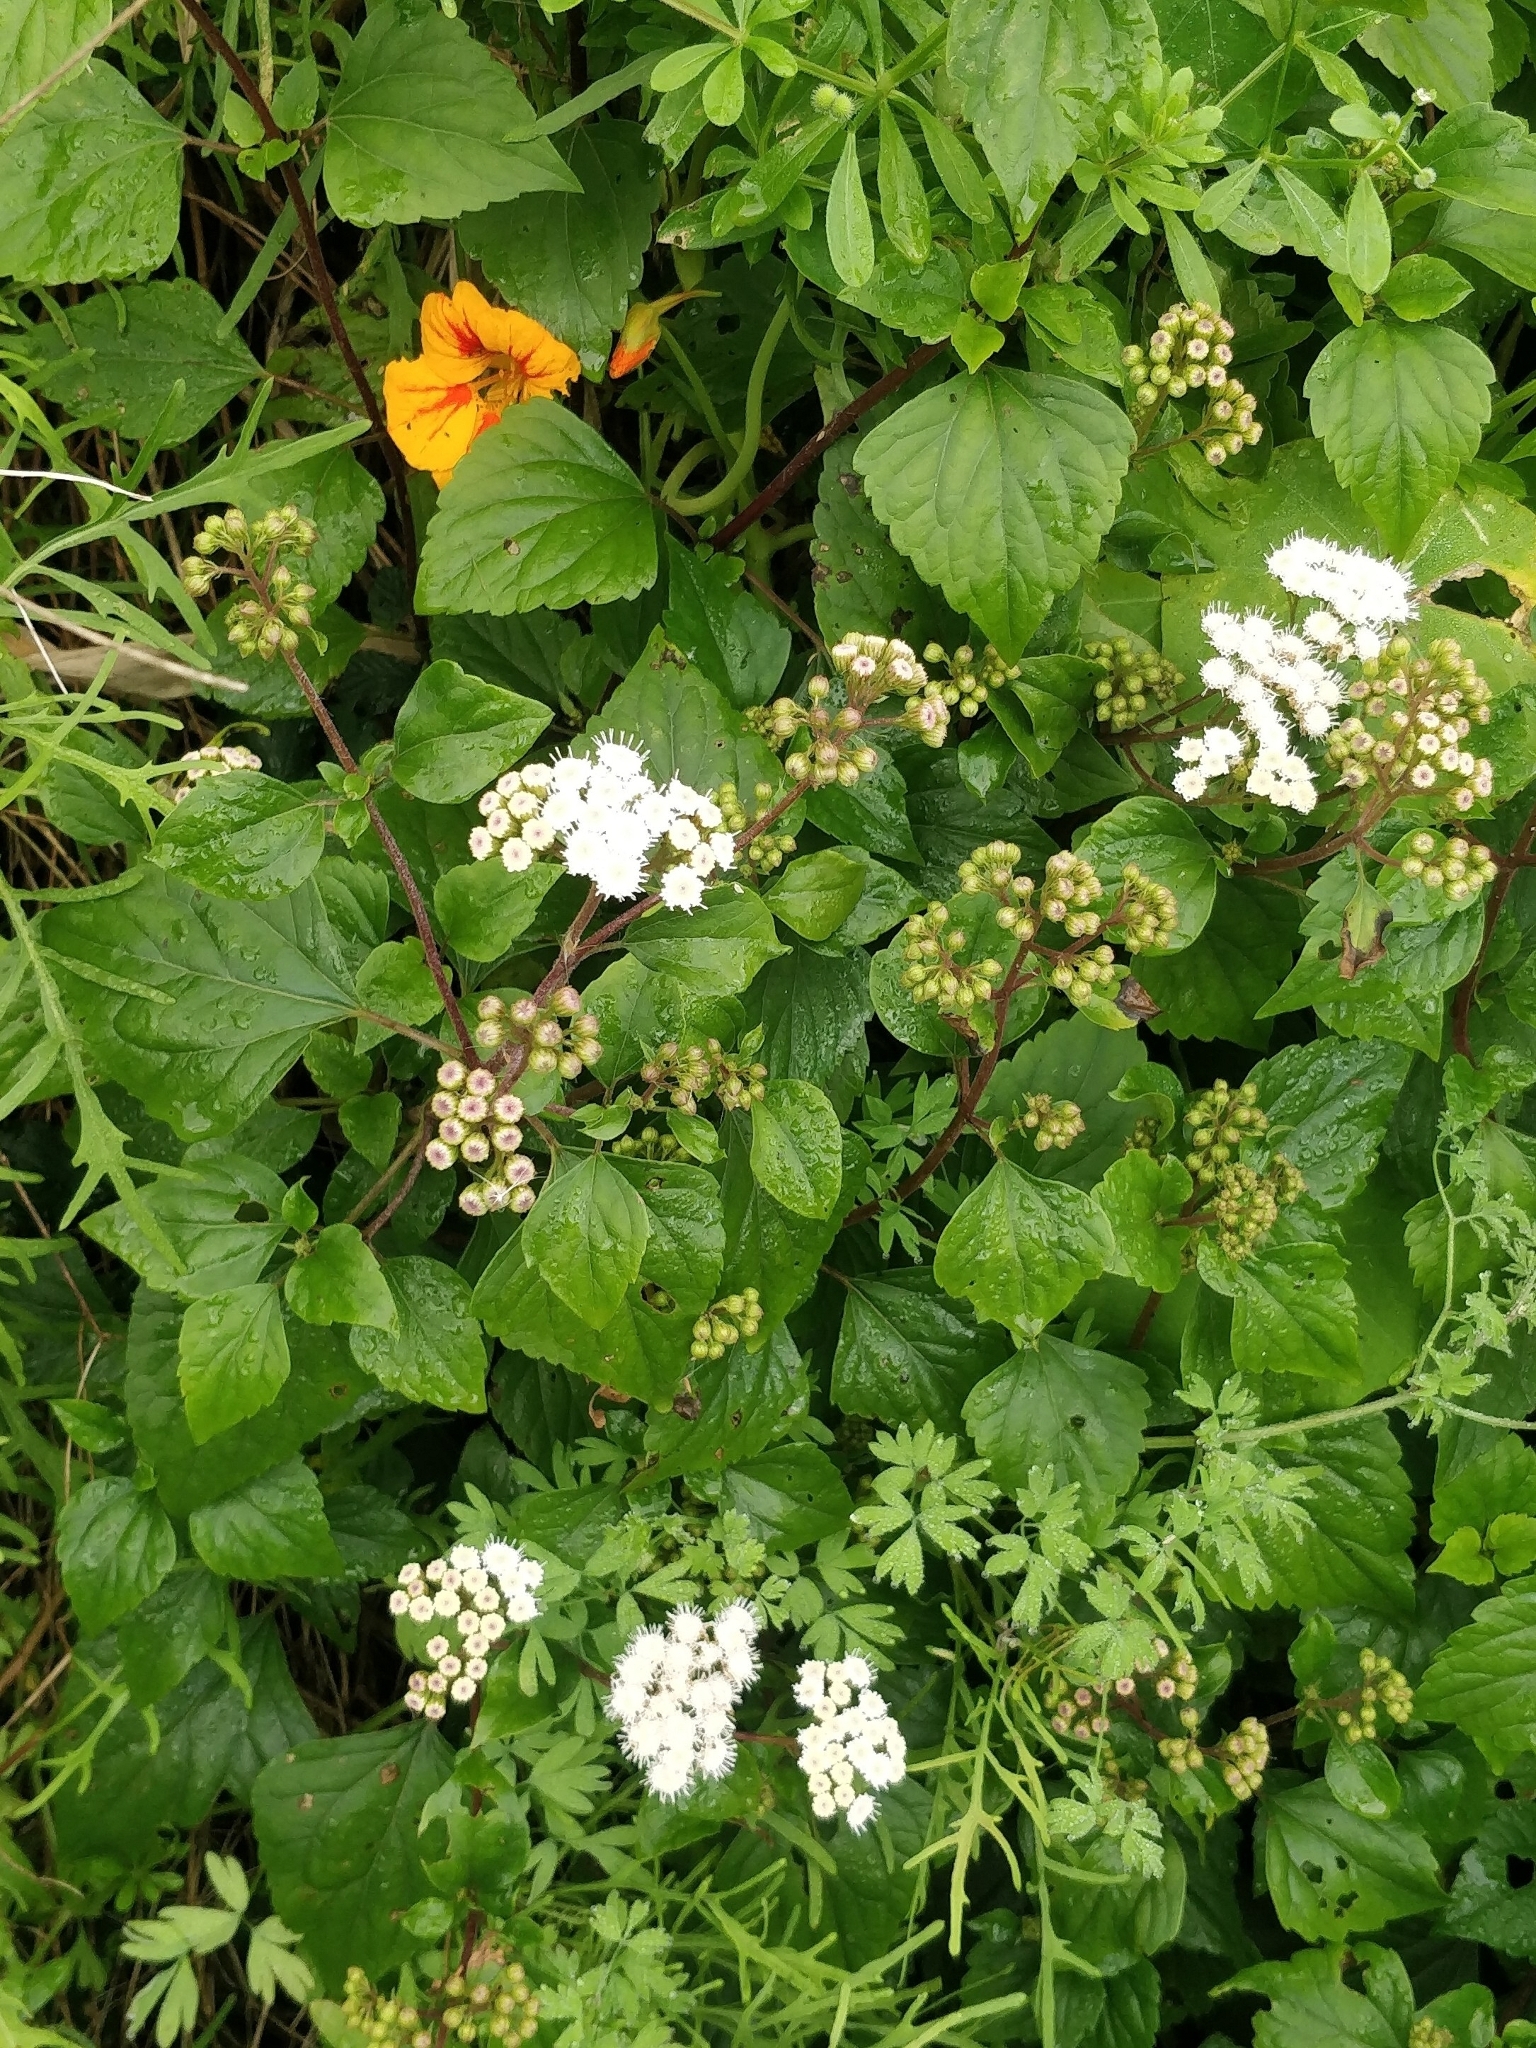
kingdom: Plantae
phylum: Tracheophyta
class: Magnoliopsida
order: Asterales
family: Asteraceae
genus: Ageratina
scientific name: Ageratina adenophora
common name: Sticky snakeroot
